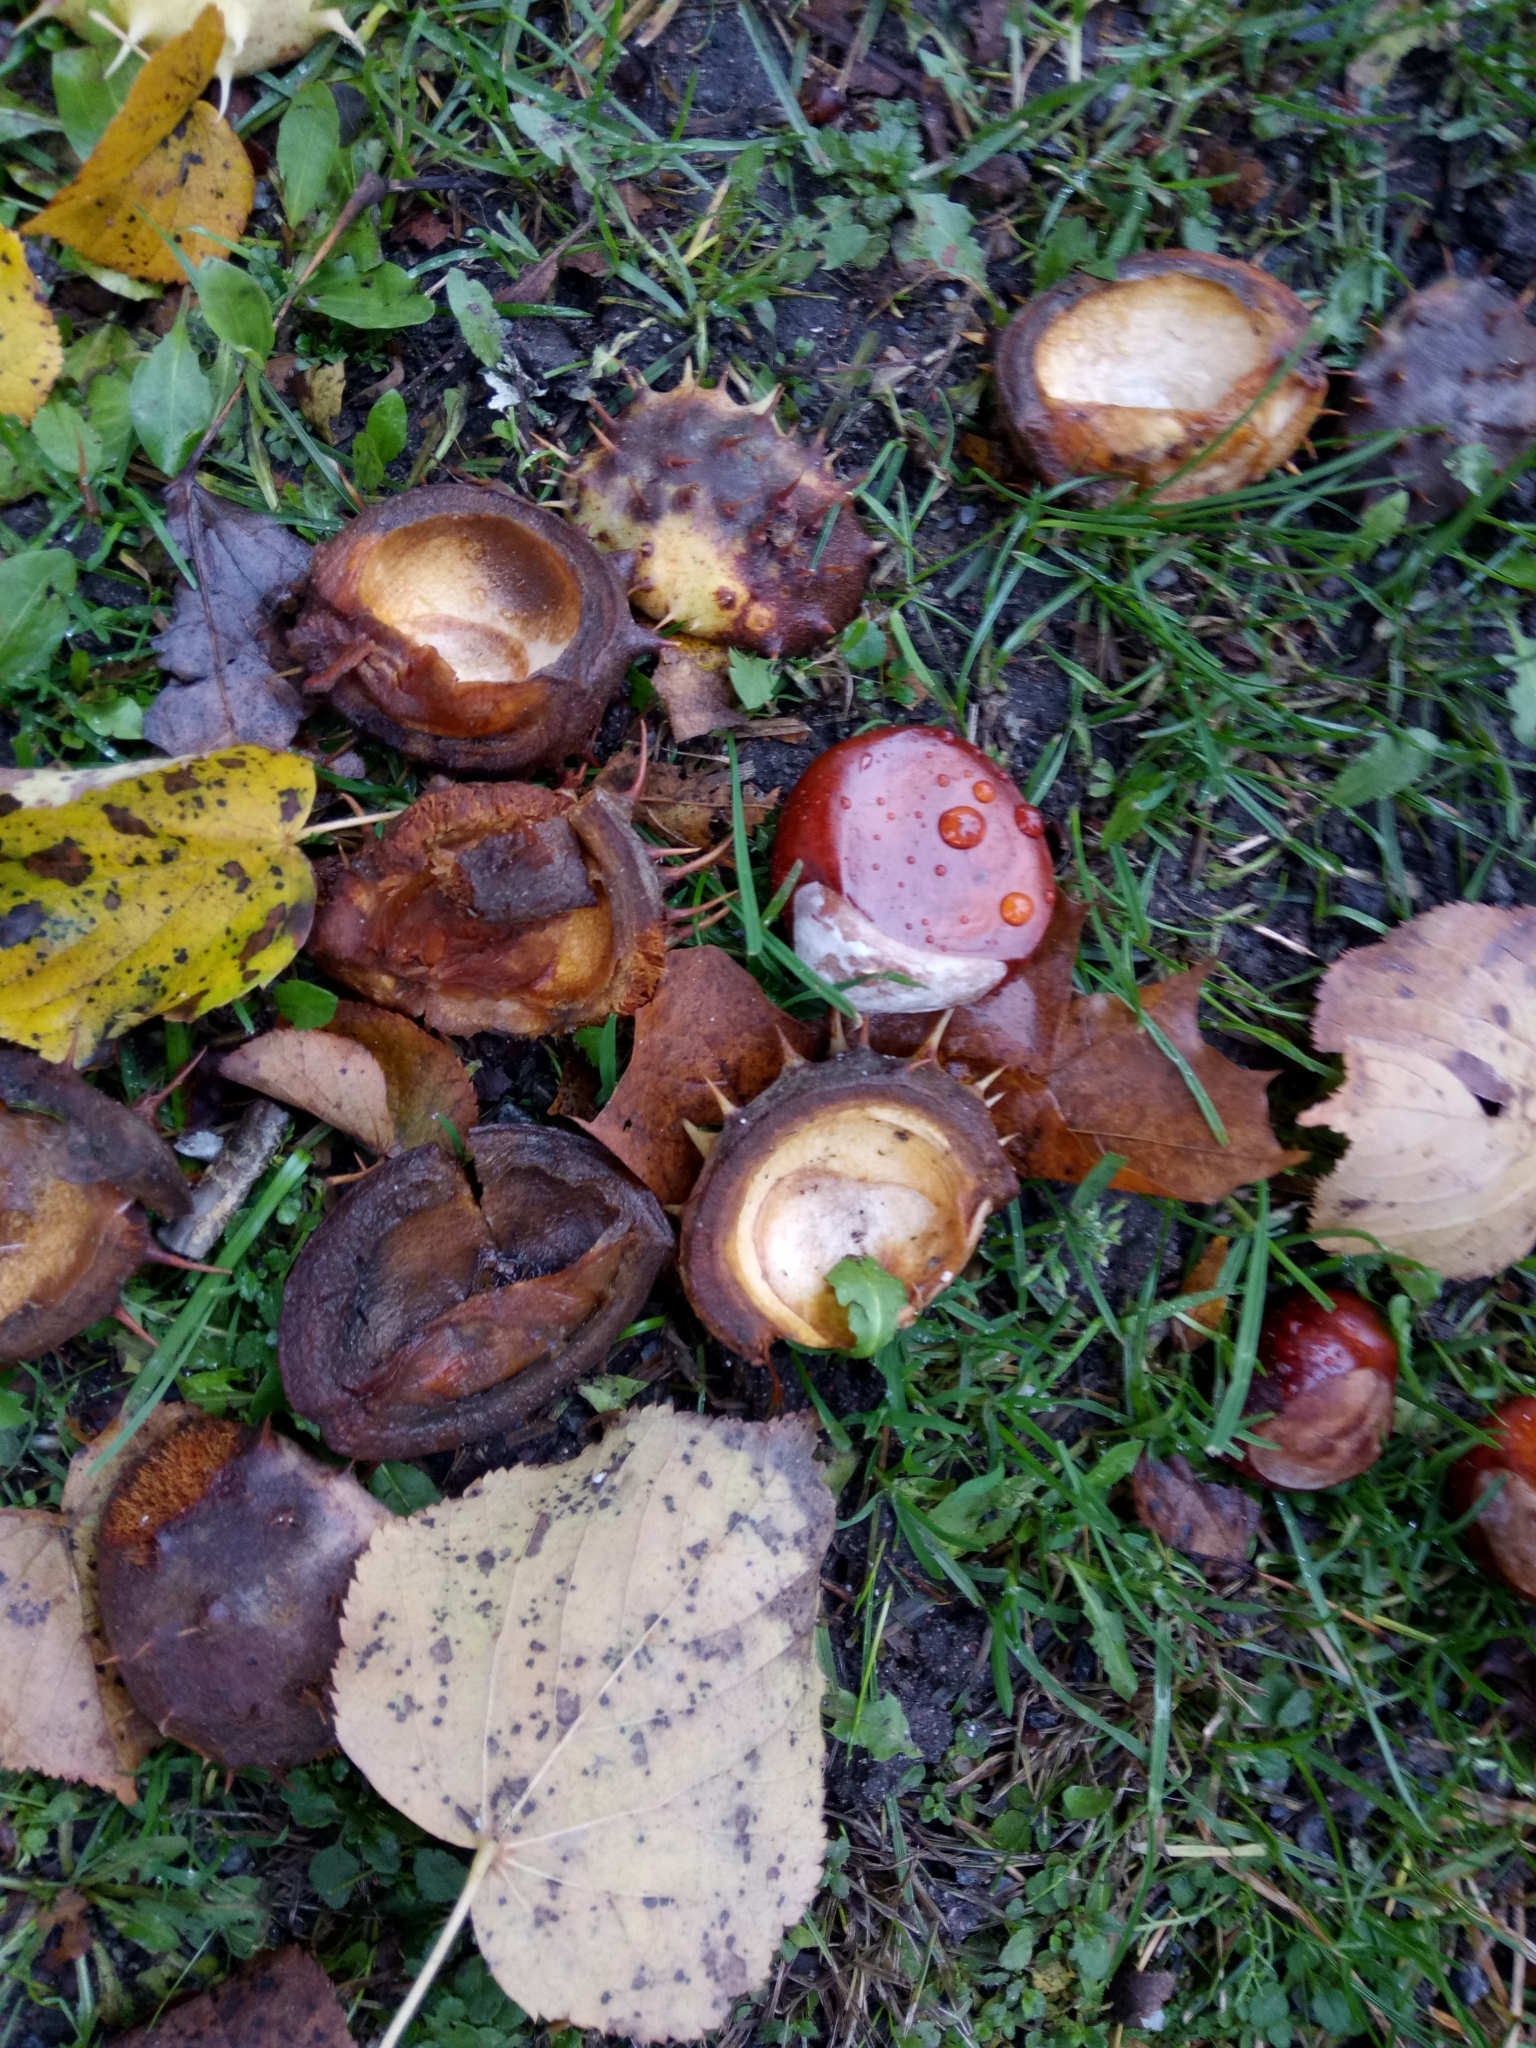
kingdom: Plantae
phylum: Tracheophyta
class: Magnoliopsida
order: Sapindales
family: Sapindaceae
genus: Aesculus
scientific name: Aesculus hippocastanum
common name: Horse-chestnut
